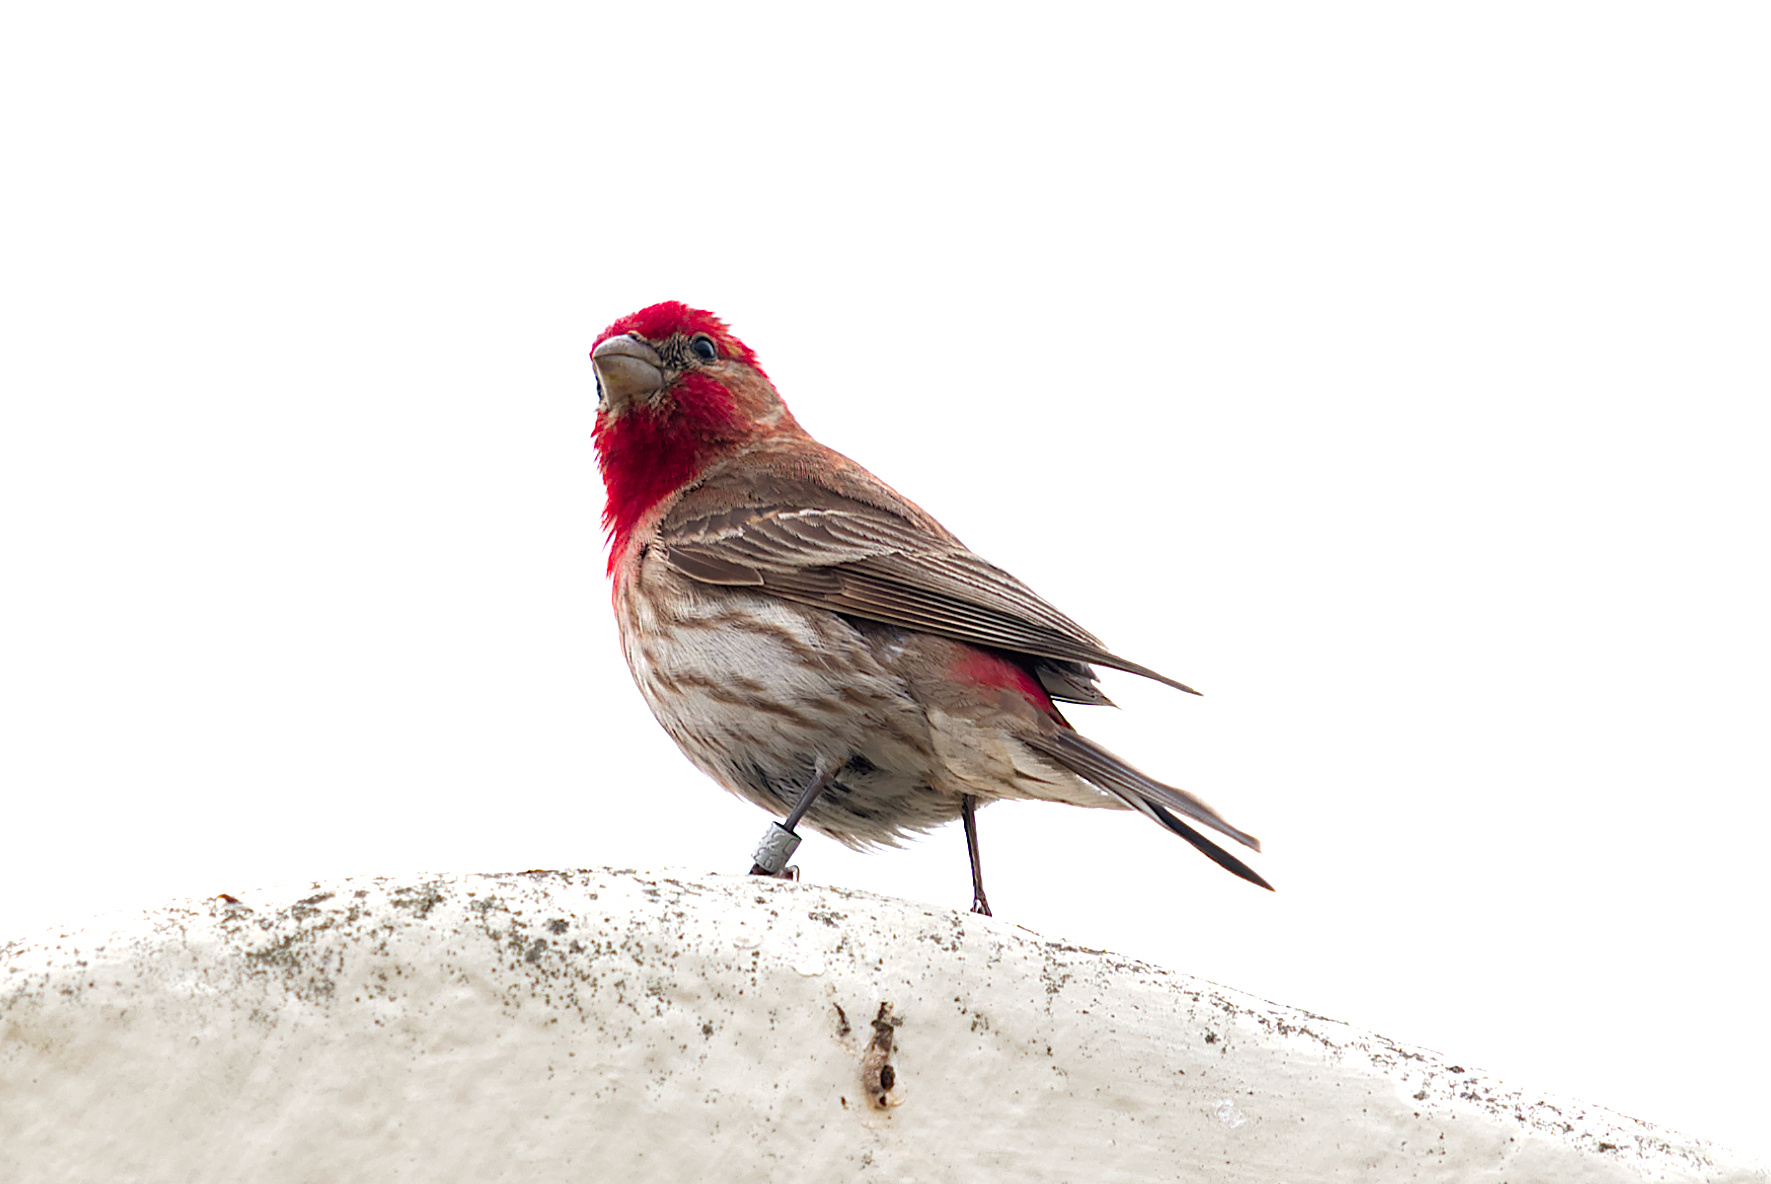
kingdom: Animalia
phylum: Chordata
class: Aves
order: Passeriformes
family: Fringillidae
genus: Haemorhous
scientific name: Haemorhous mexicanus
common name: House finch
